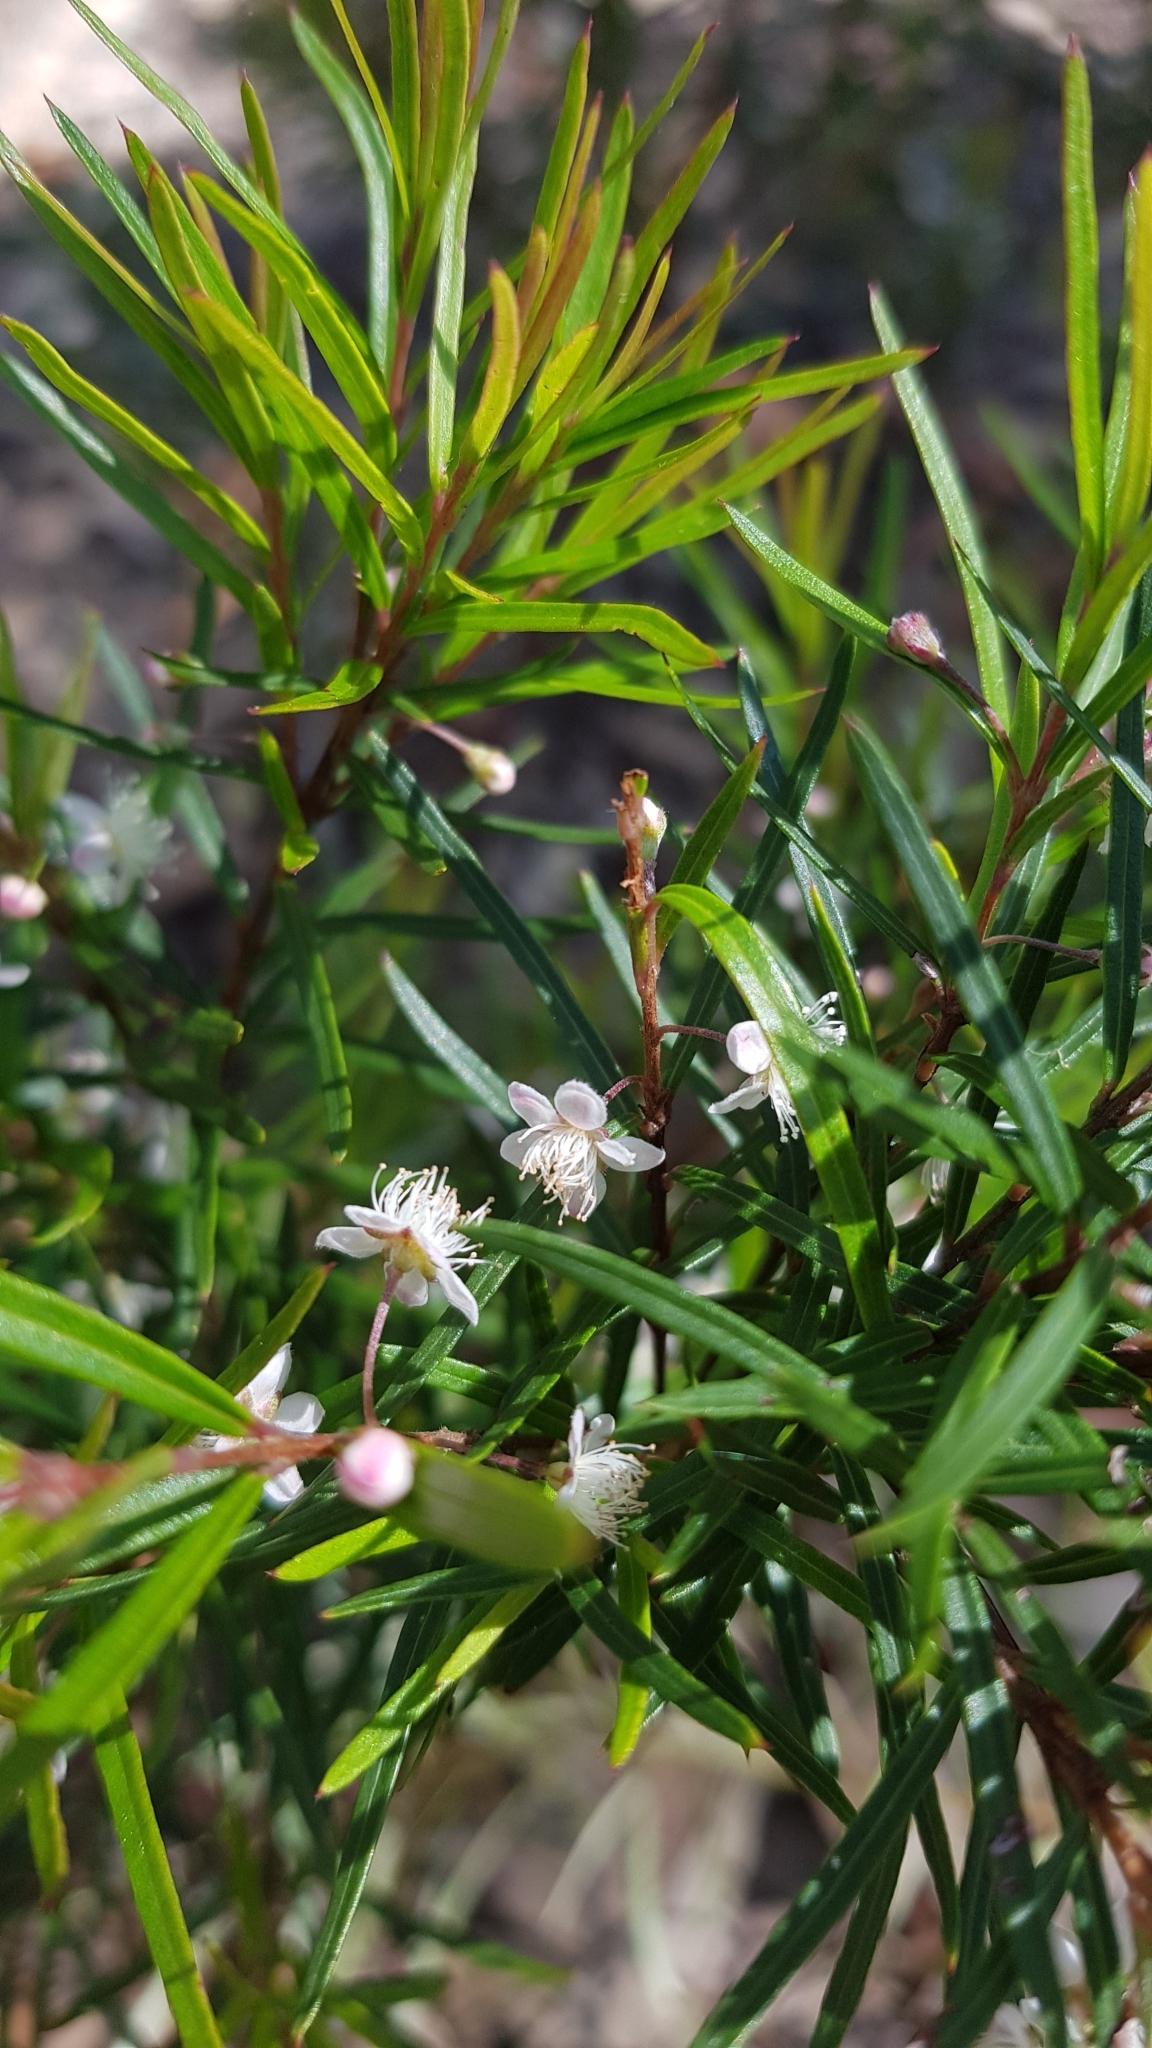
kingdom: Plantae
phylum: Tracheophyta
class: Magnoliopsida
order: Myrtales
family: Myrtaceae
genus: Austromyrtus
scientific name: Austromyrtus tenuifolia
